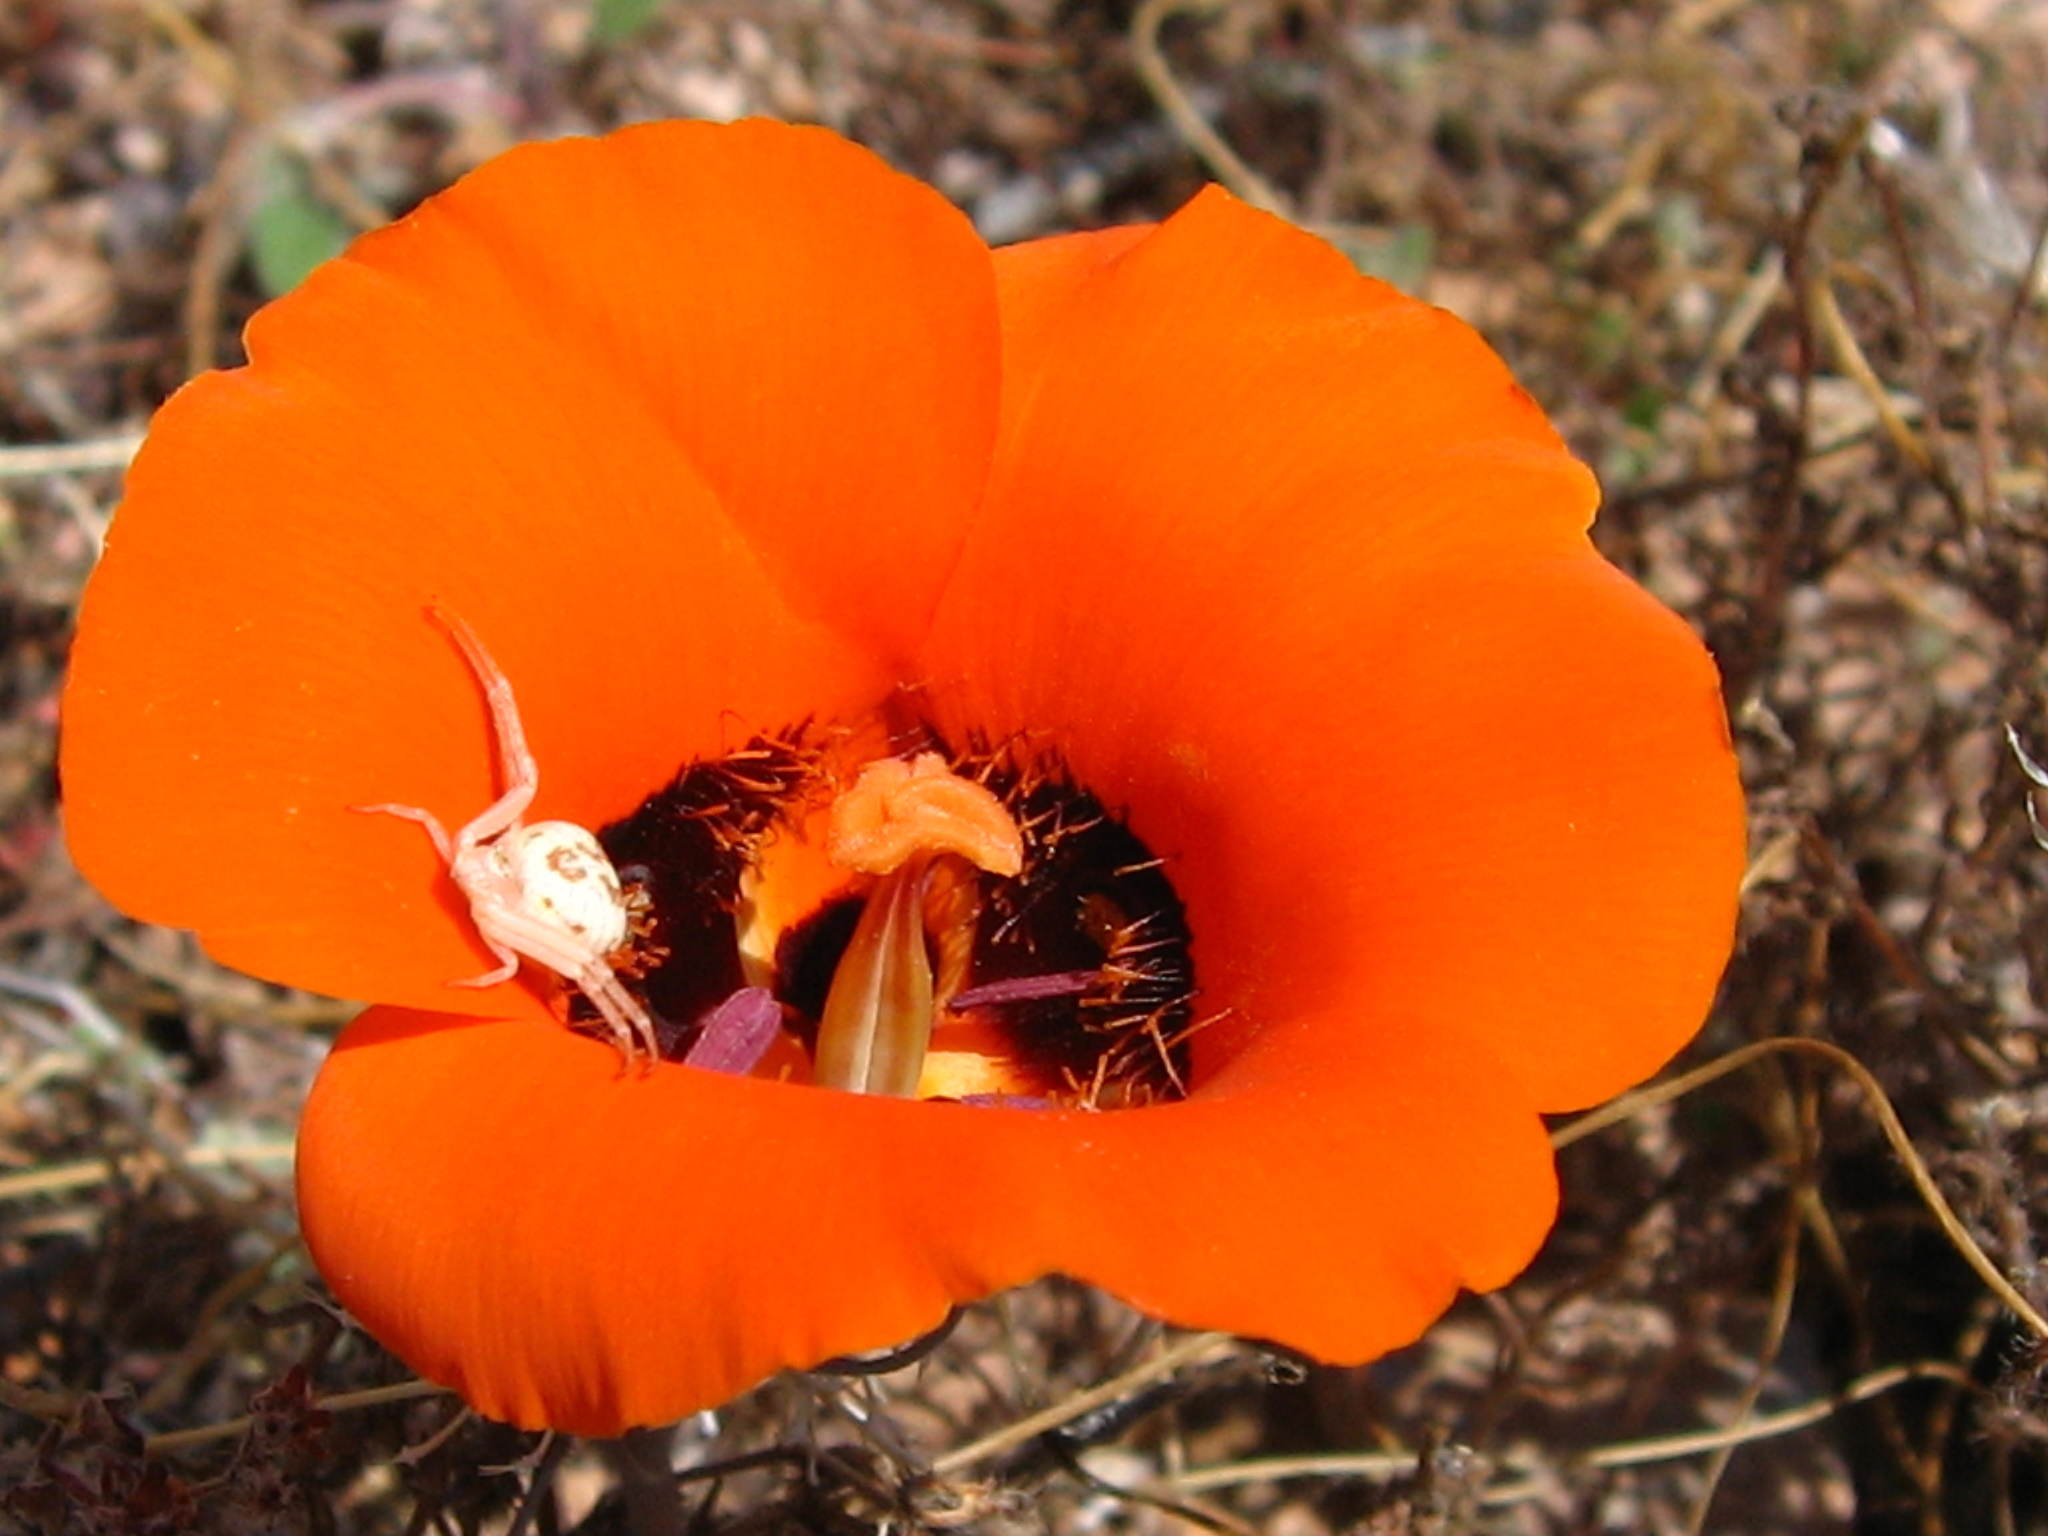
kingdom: Plantae
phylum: Tracheophyta
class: Liliopsida
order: Liliales
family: Liliaceae
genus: Calochortus
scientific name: Calochortus kennedyi
